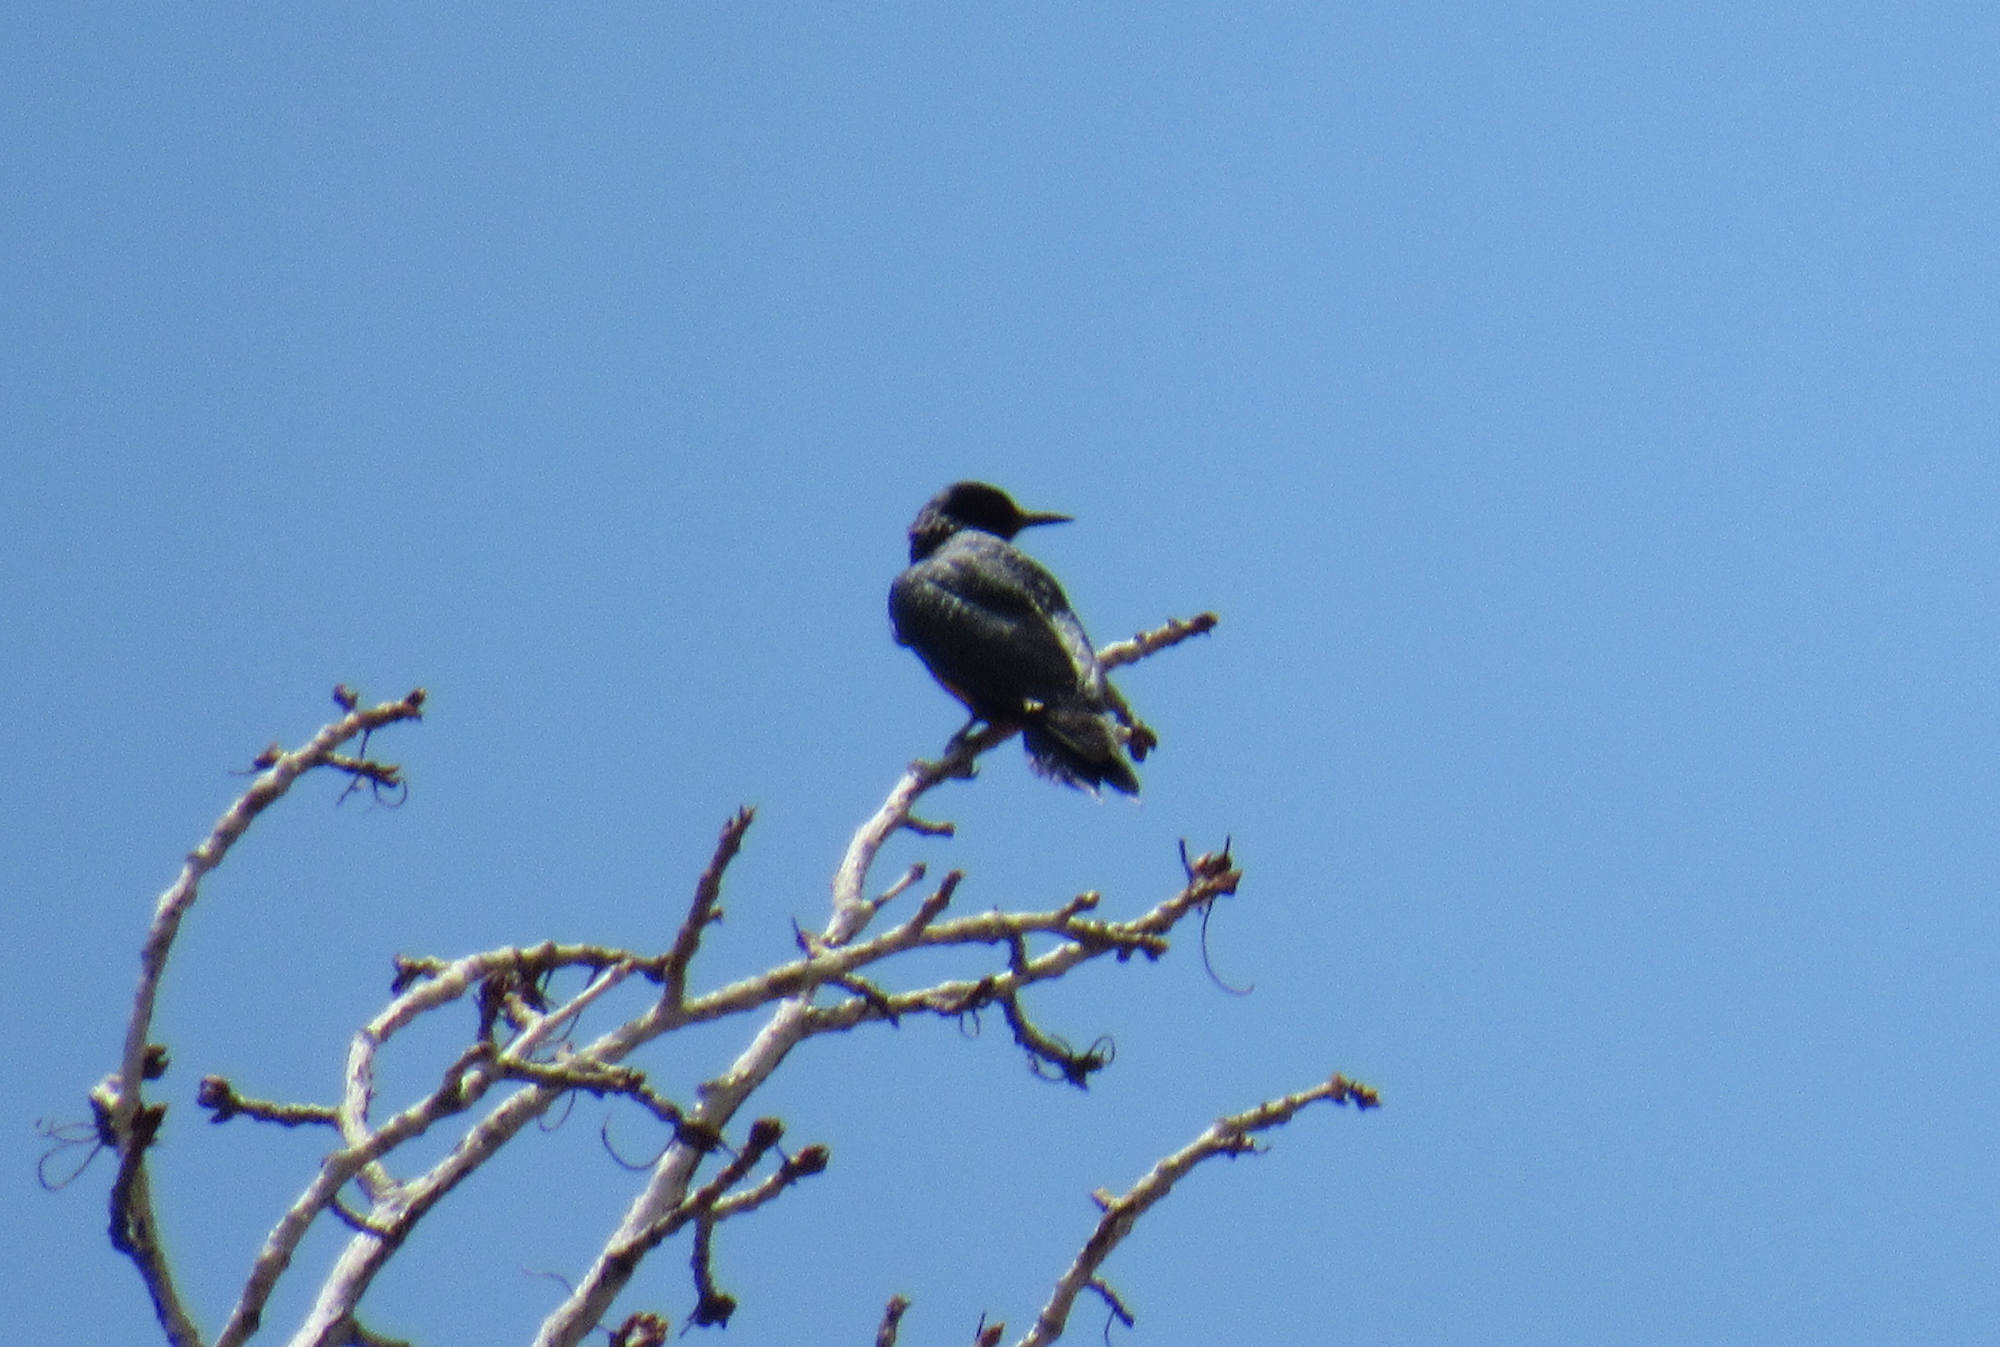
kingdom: Animalia
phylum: Chordata
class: Aves
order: Piciformes
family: Picidae
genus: Melanerpes
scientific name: Melanerpes lewis
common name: Lewis's woodpecker
